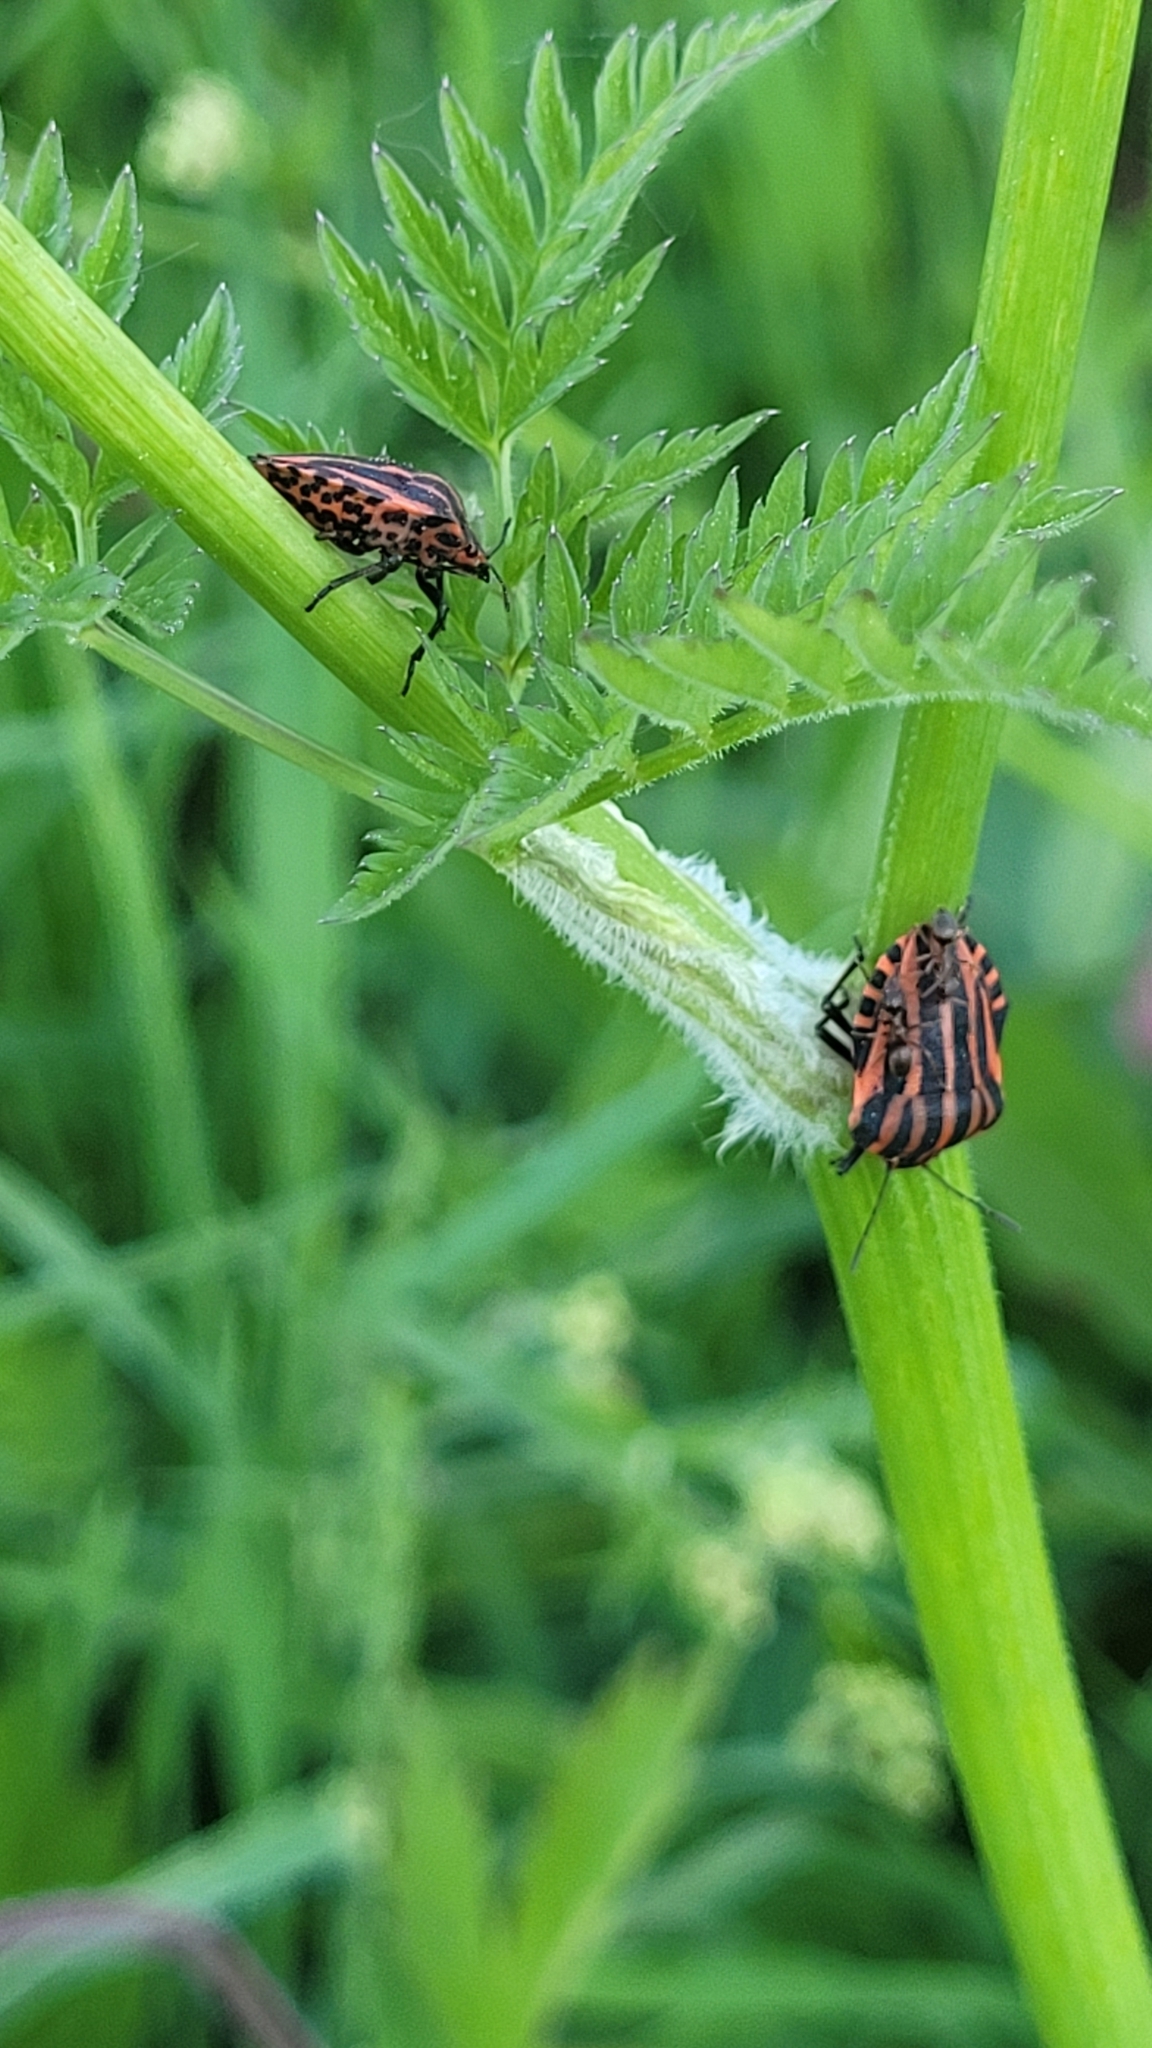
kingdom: Animalia
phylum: Arthropoda
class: Insecta
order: Hemiptera
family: Pentatomidae
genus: Graphosoma
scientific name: Graphosoma italicum
